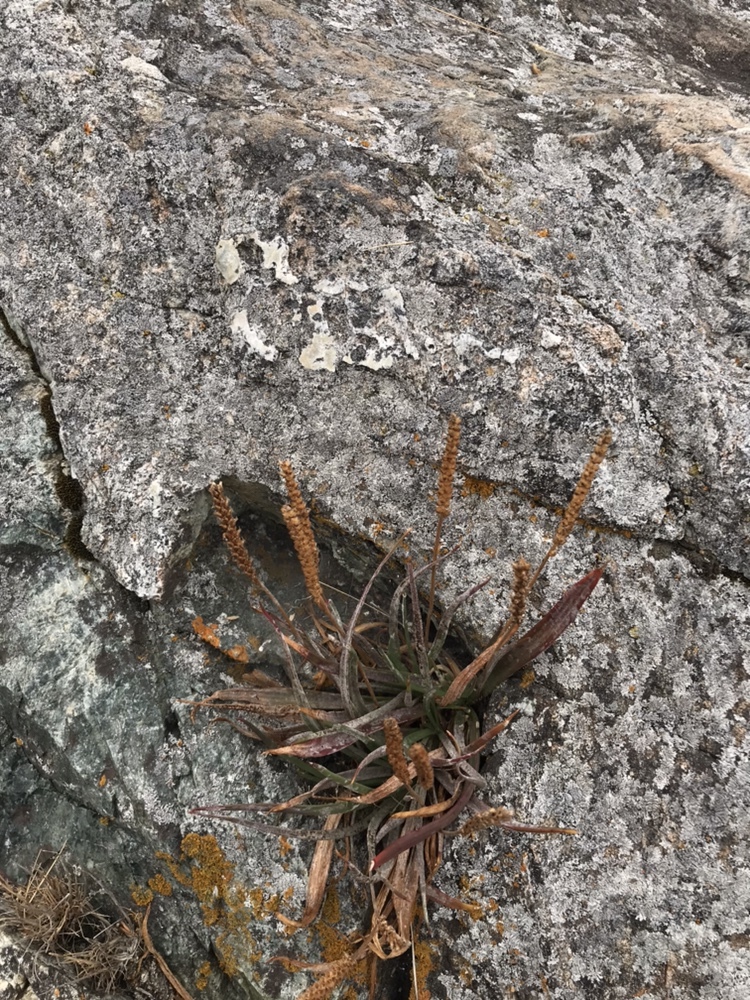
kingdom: Plantae
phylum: Tracheophyta
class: Magnoliopsida
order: Lamiales
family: Plantaginaceae
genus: Plantago
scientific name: Plantago maritima
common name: Sea plantain
